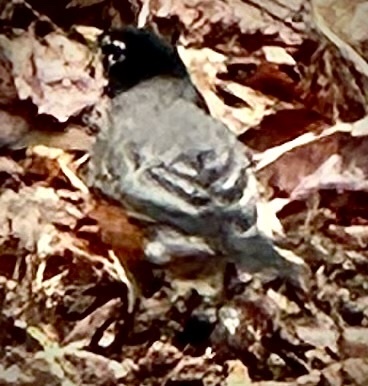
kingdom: Animalia
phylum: Chordata
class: Aves
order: Passeriformes
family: Turdidae
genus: Turdus
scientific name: Turdus migratorius
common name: American robin
